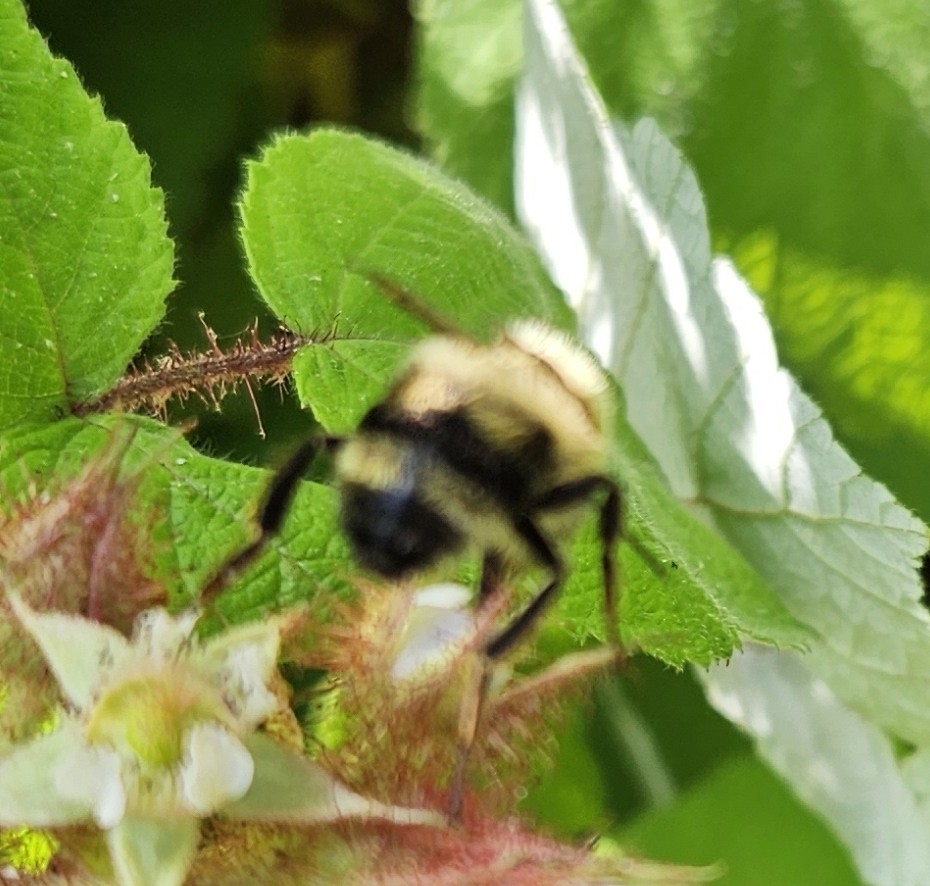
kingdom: Animalia
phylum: Arthropoda
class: Insecta
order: Hymenoptera
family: Apidae
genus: Bombus
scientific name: Bombus bimaculatus
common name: Two-spotted bumble bee
